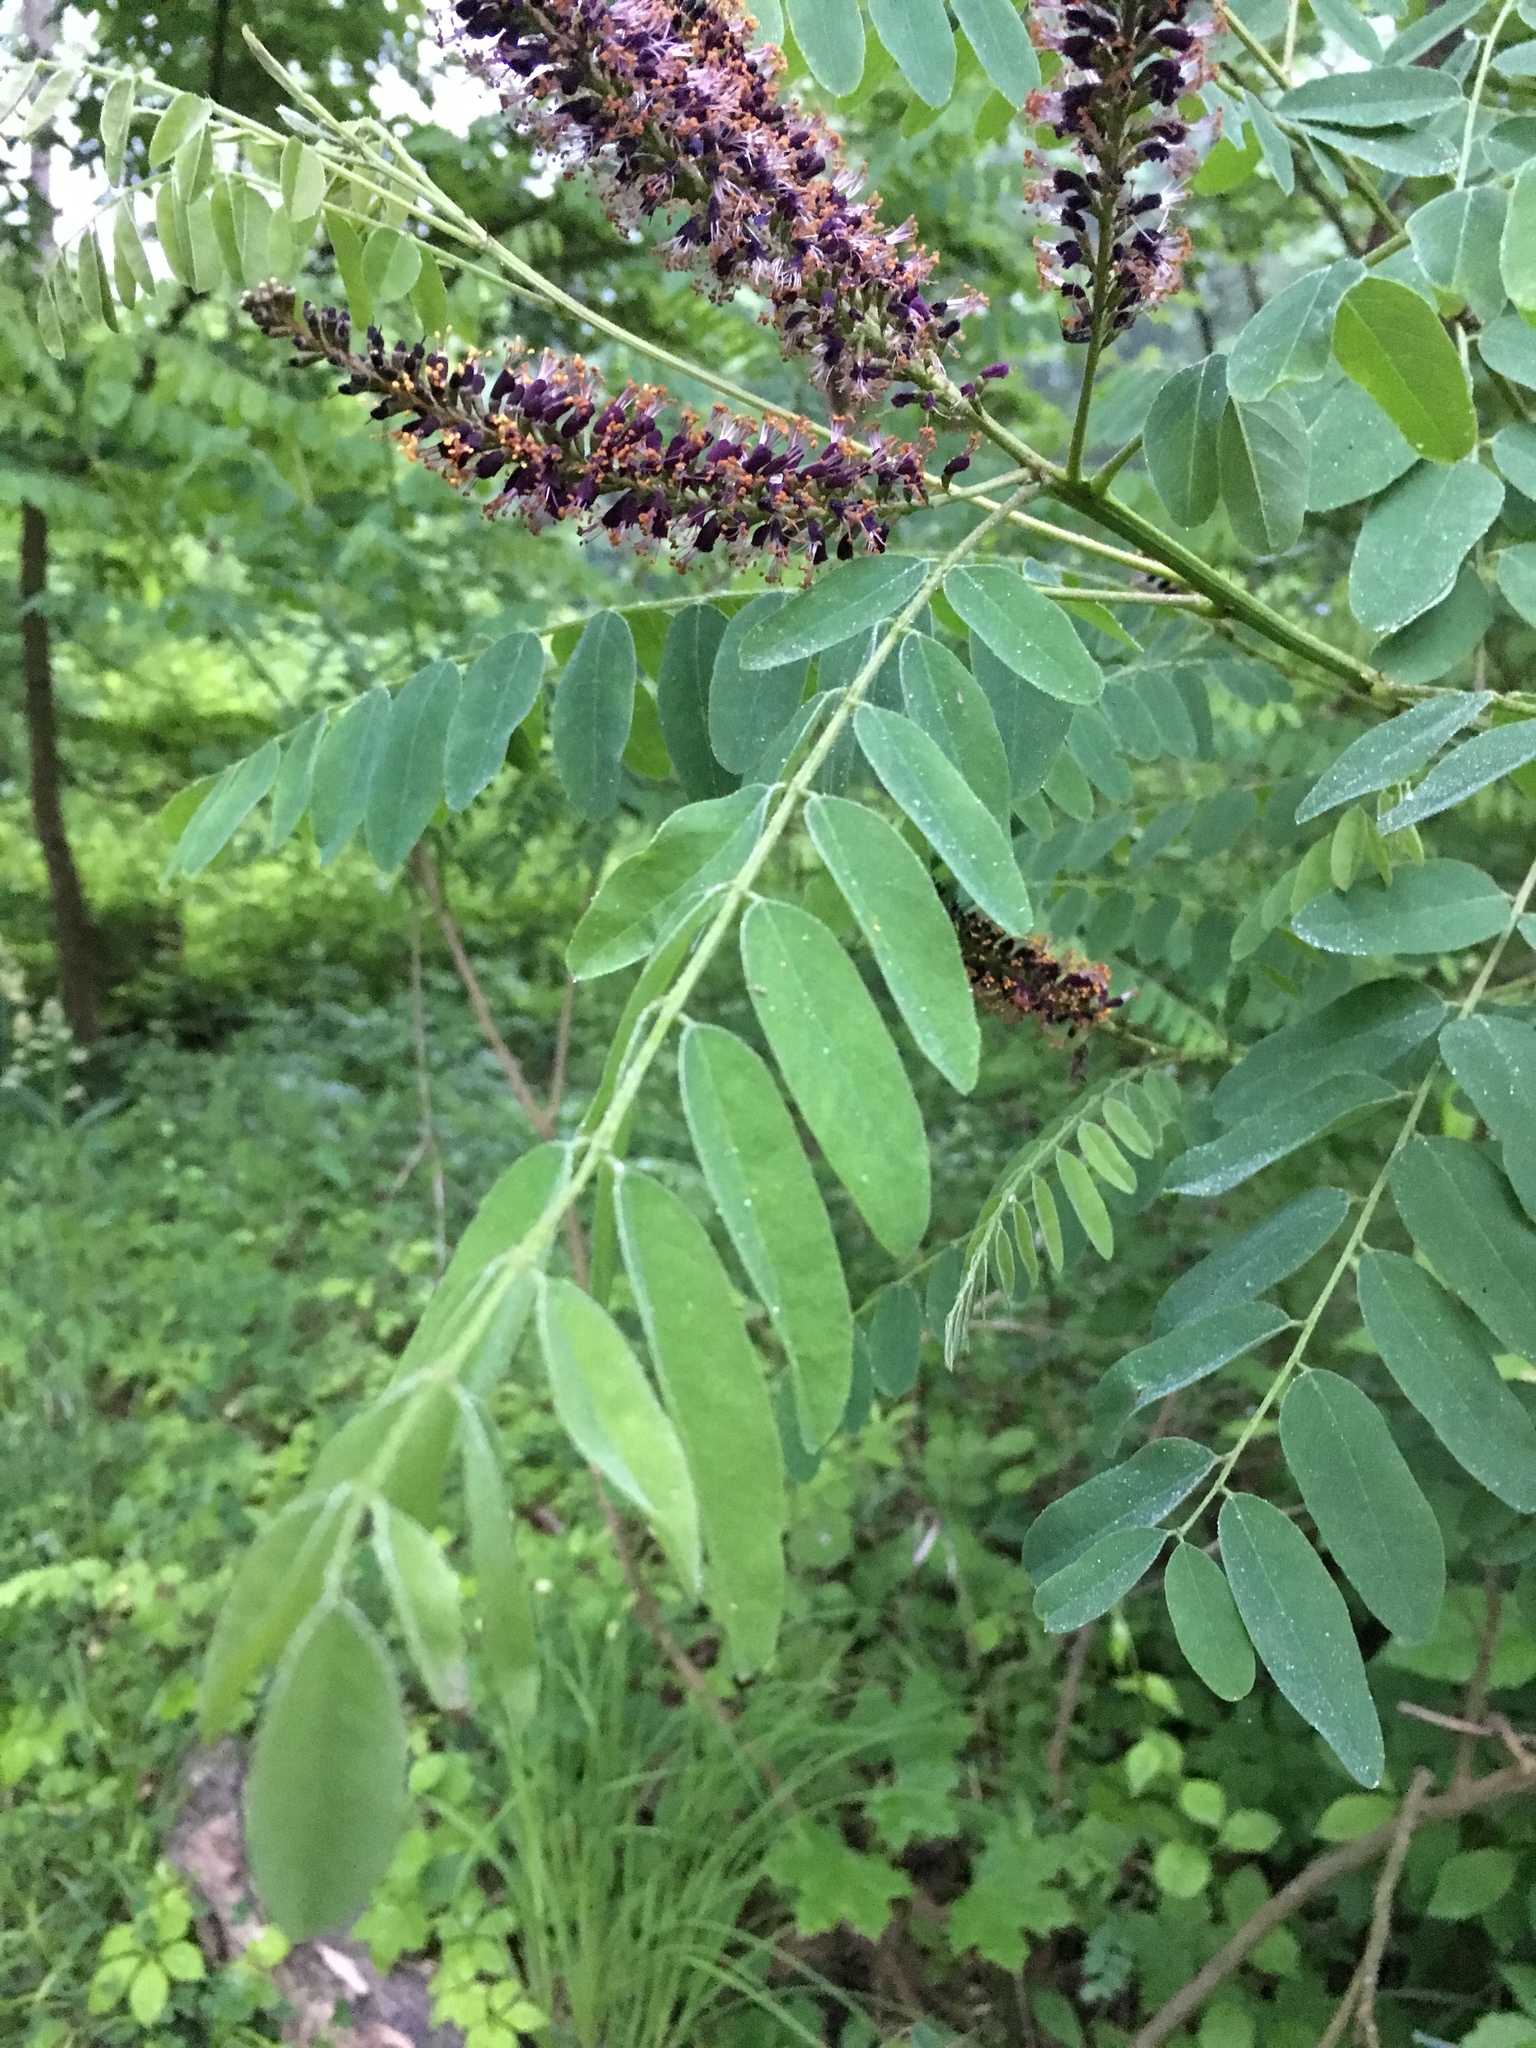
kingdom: Plantae
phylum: Tracheophyta
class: Magnoliopsida
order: Fabales
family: Fabaceae
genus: Amorpha
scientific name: Amorpha fruticosa
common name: False indigo
